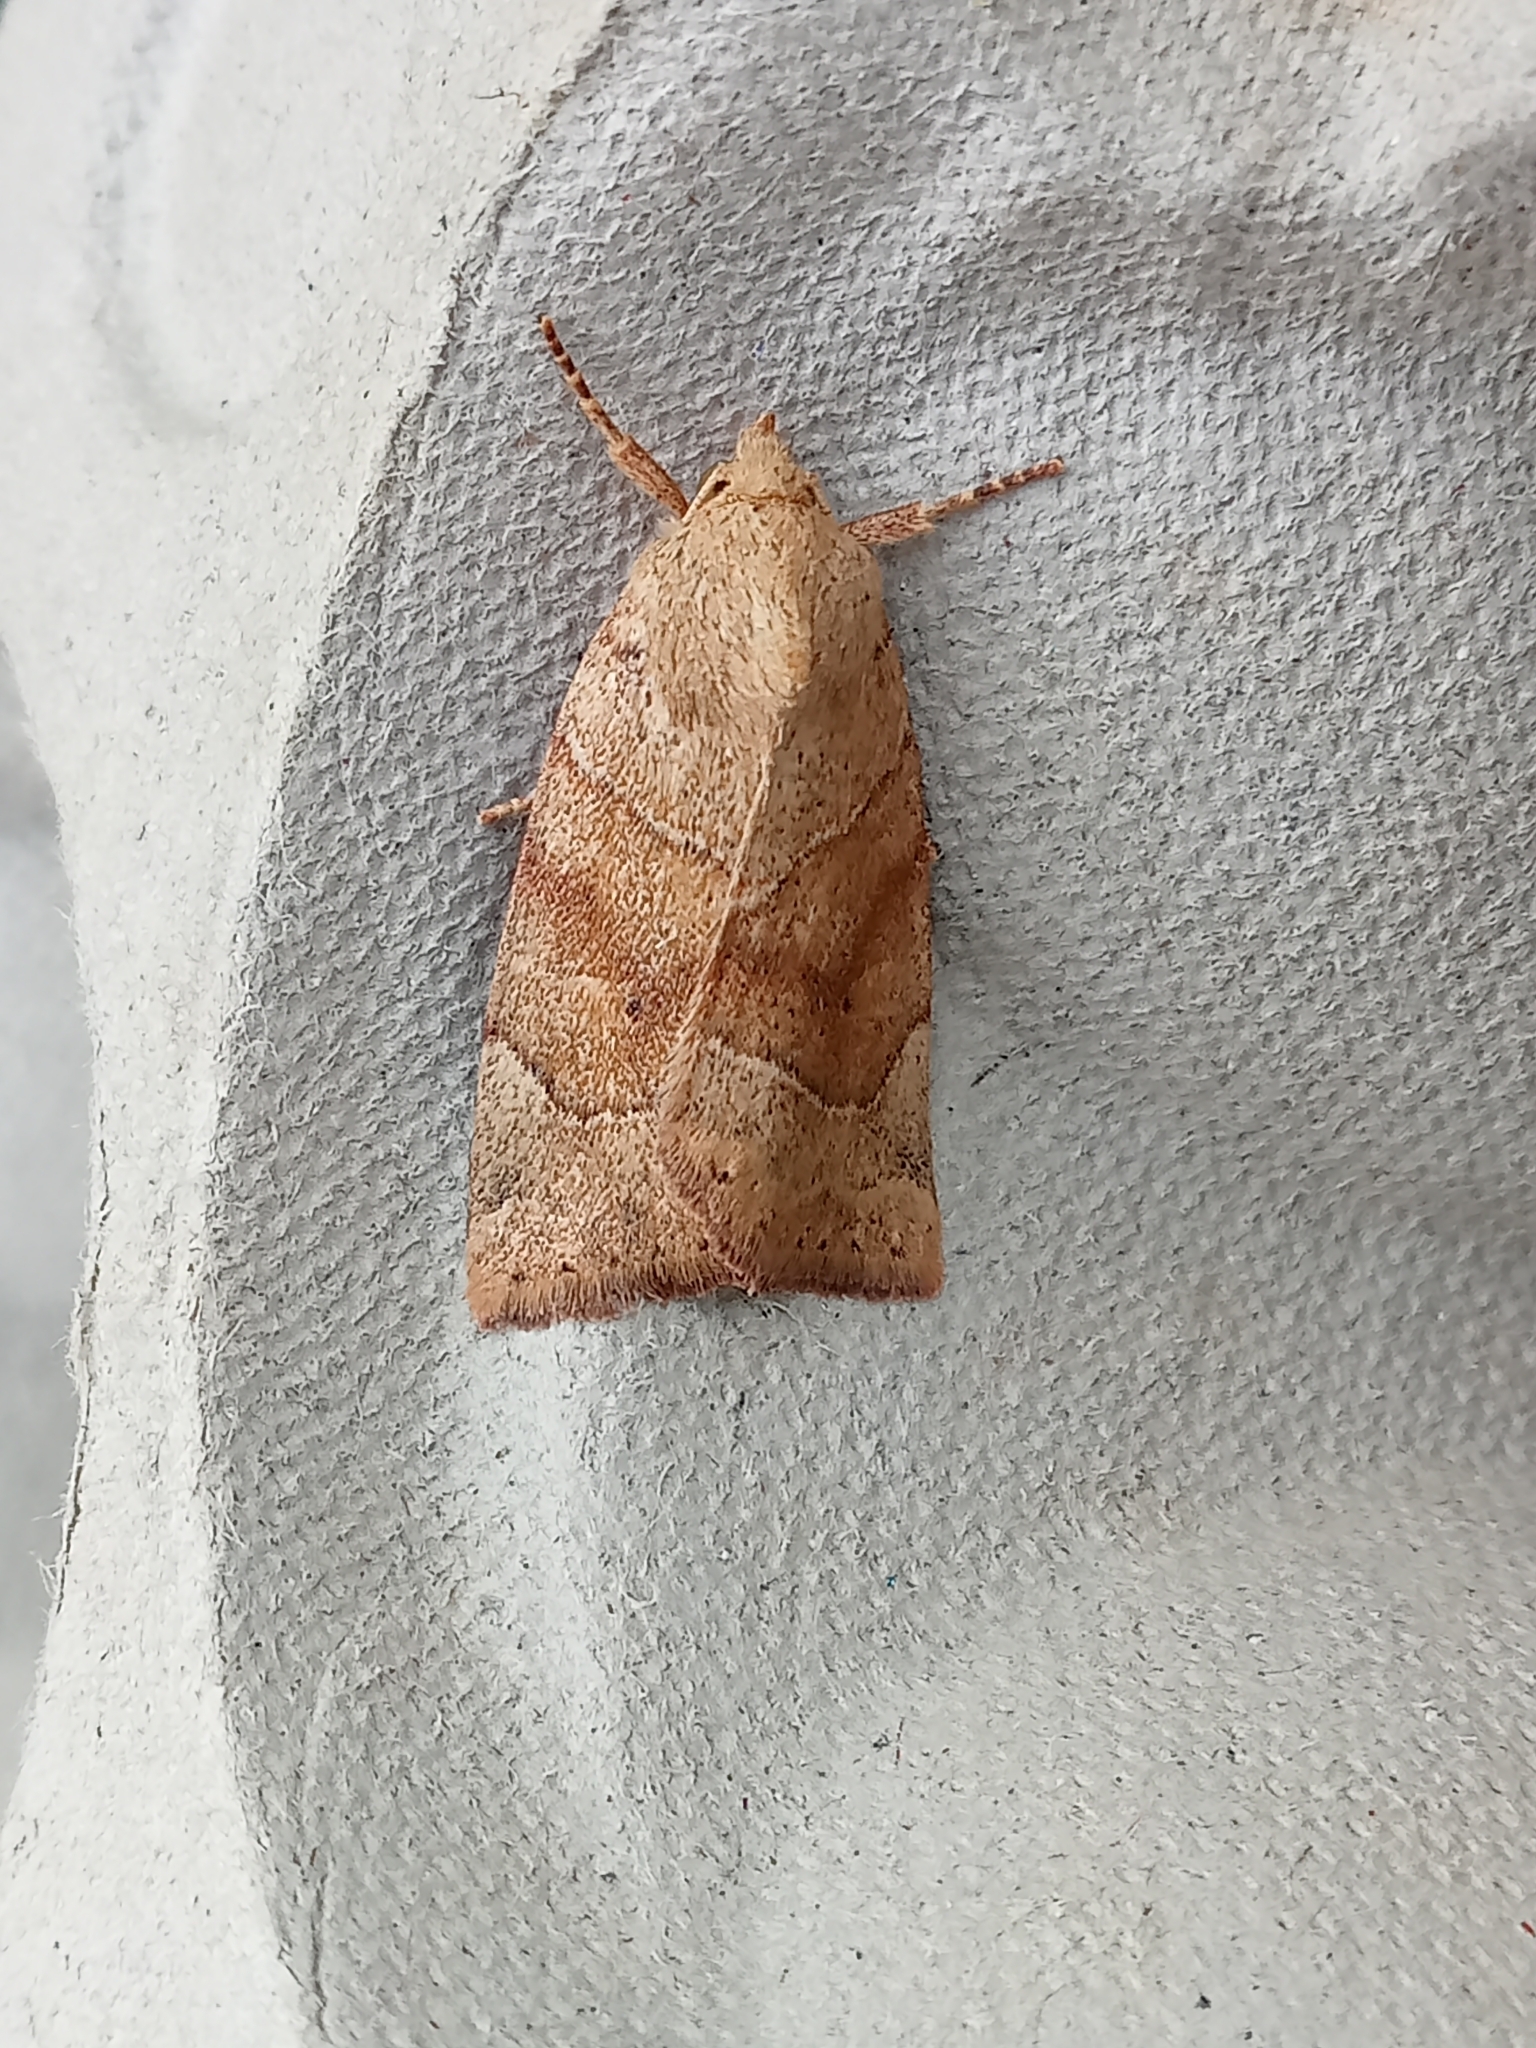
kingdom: Animalia
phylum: Arthropoda
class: Insecta
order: Lepidoptera
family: Noctuidae
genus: Cosmia
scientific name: Cosmia trapezina
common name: Dun-bar
